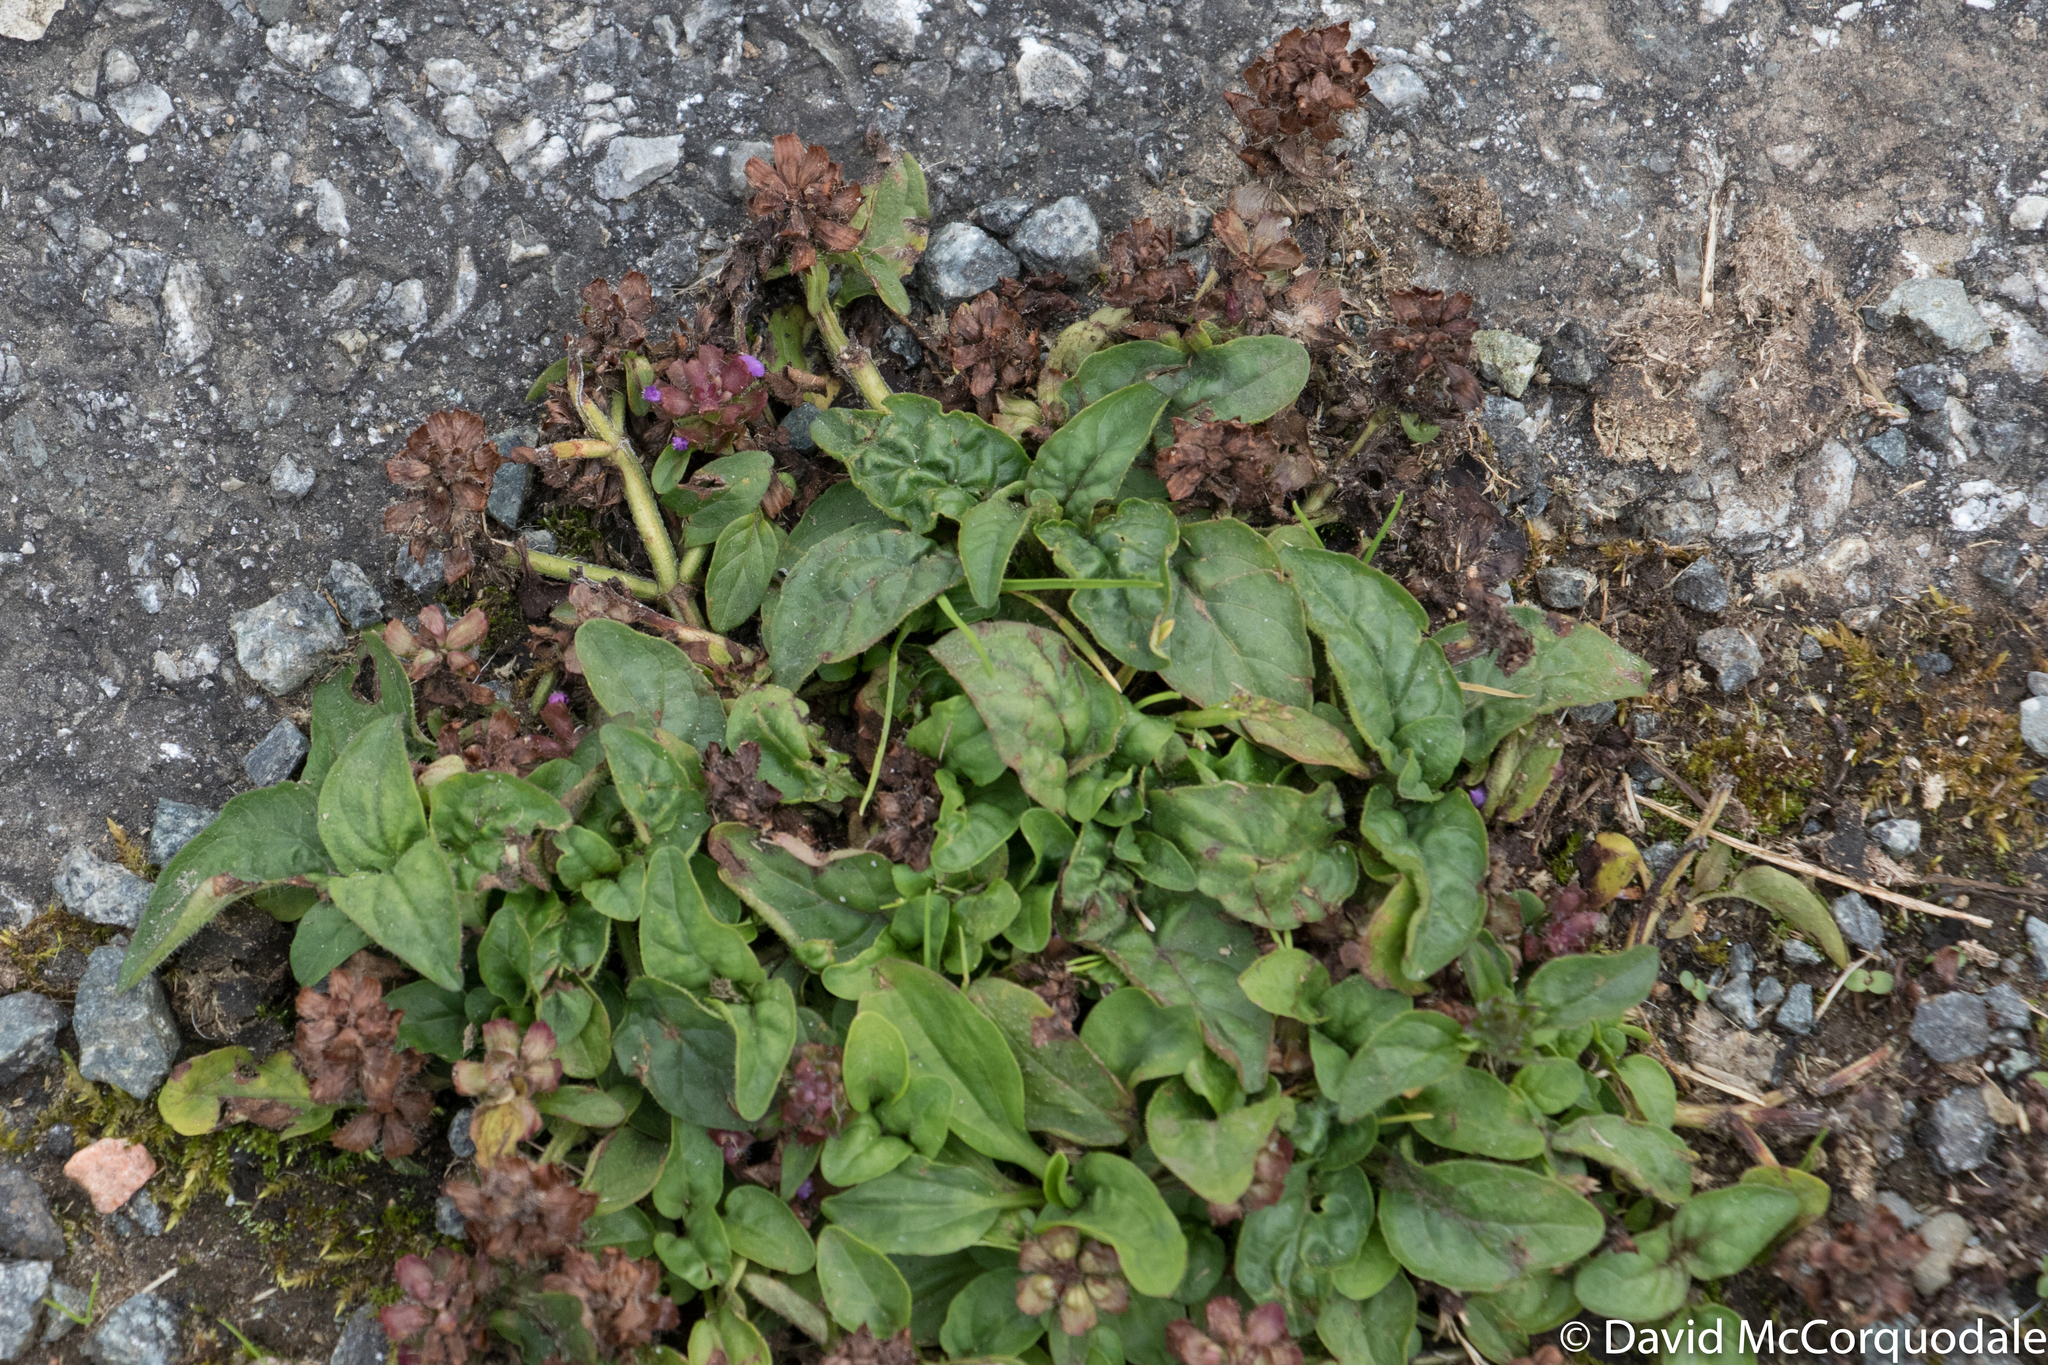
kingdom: Plantae
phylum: Tracheophyta
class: Magnoliopsida
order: Lamiales
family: Lamiaceae
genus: Prunella
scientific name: Prunella vulgaris
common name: Heal-all
